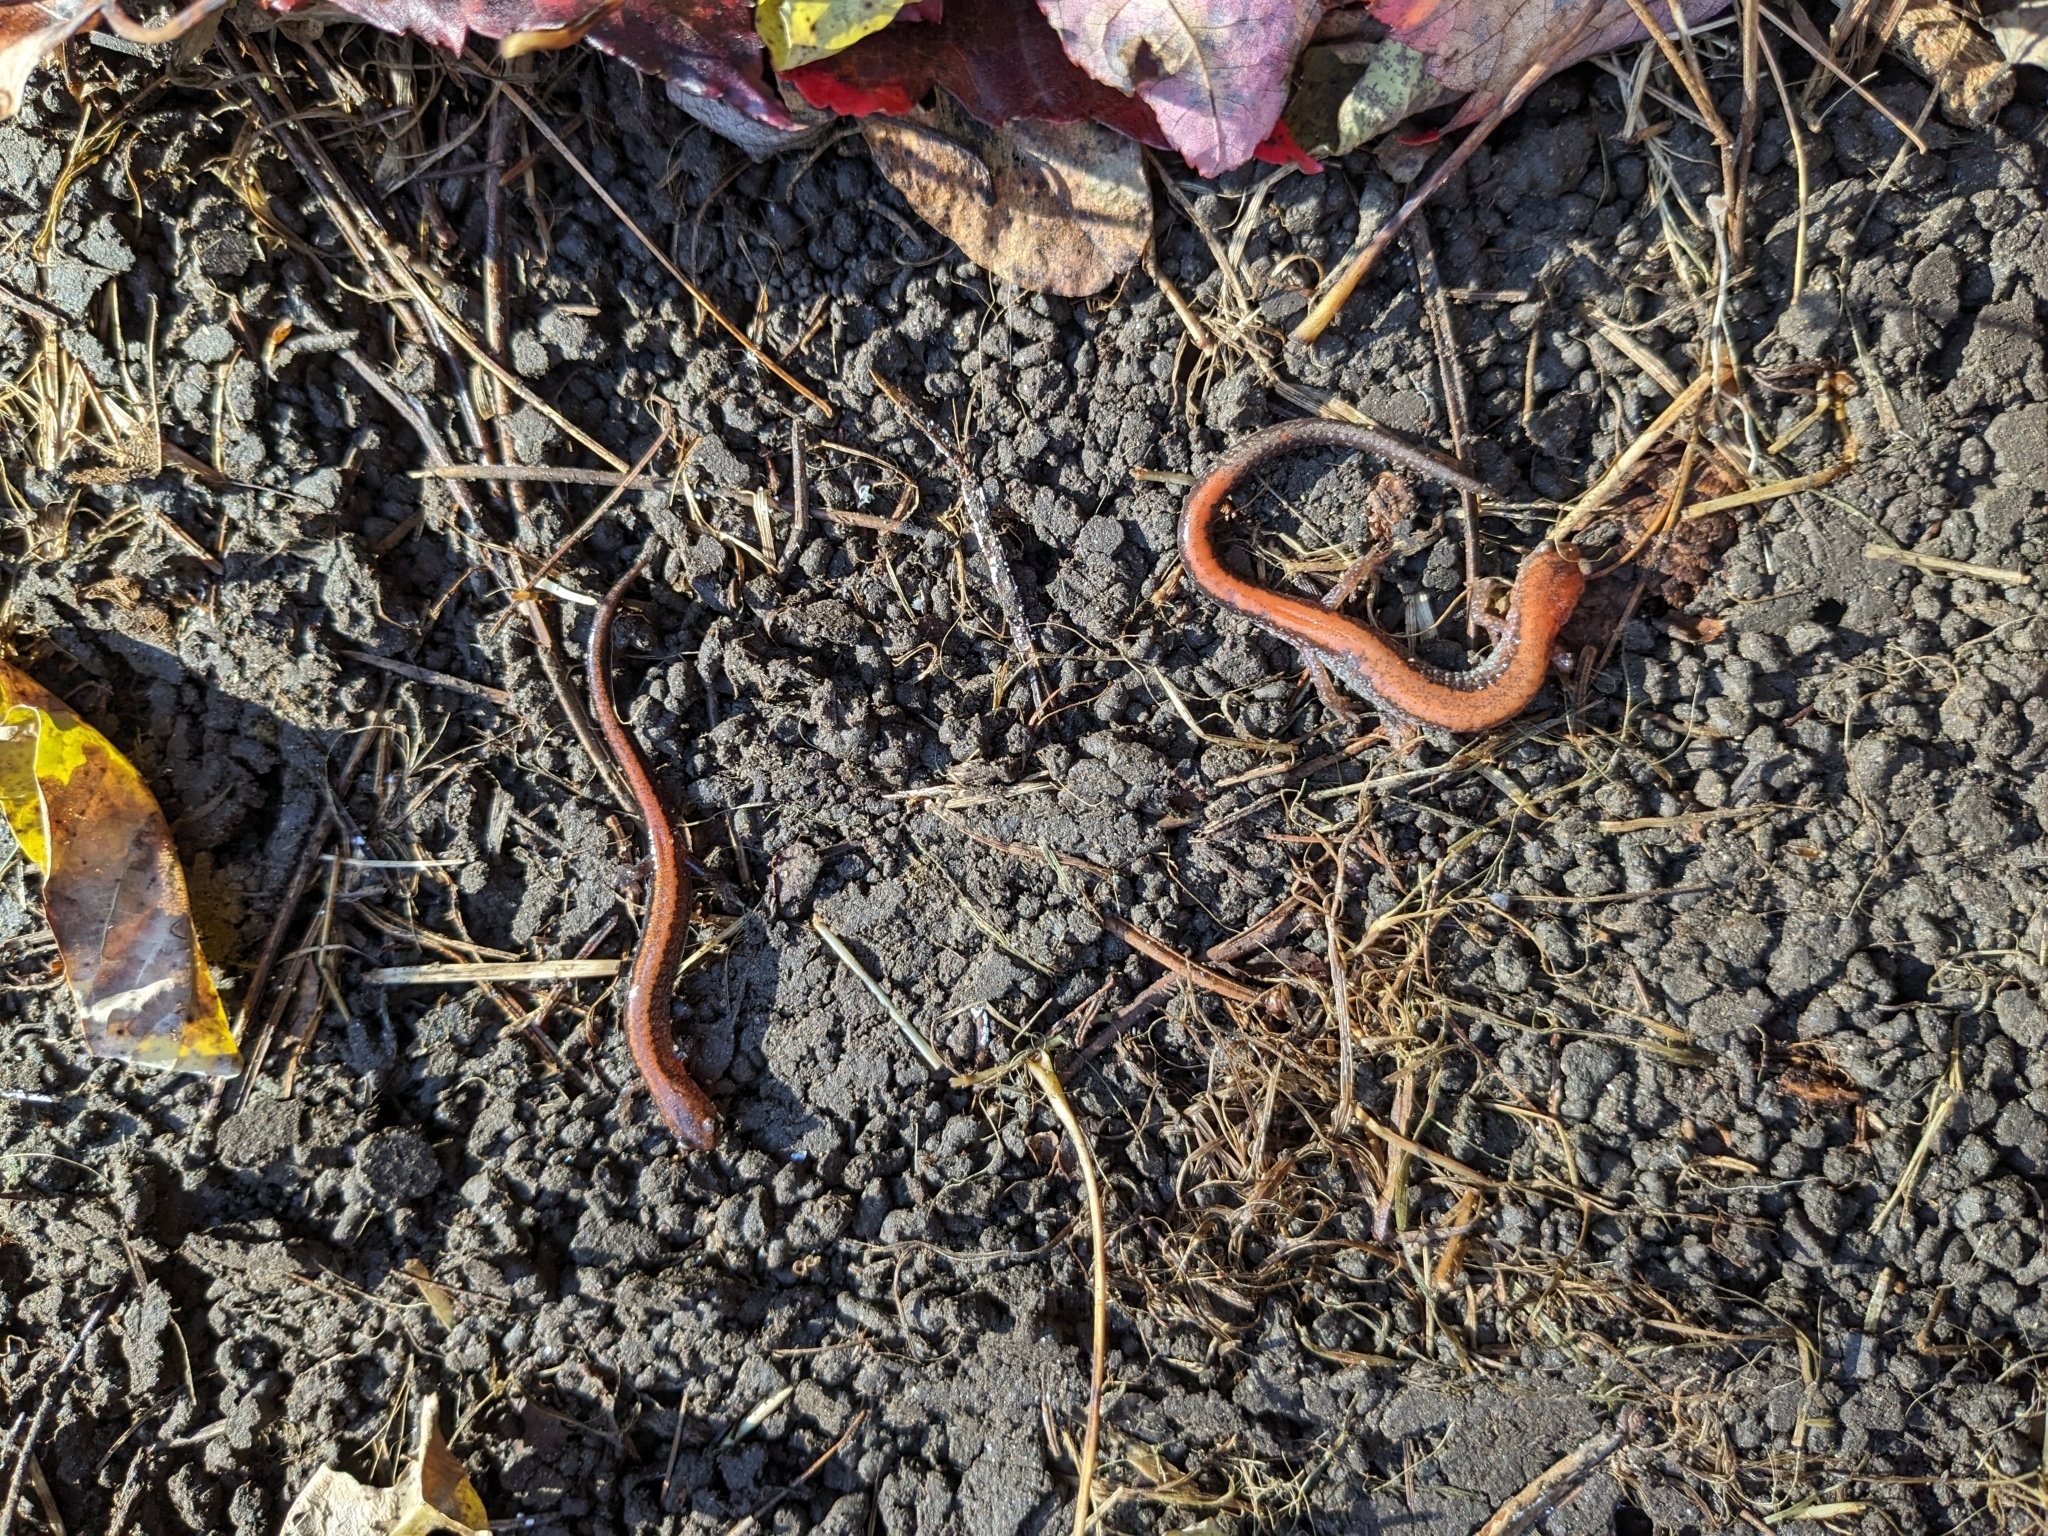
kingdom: Animalia
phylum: Chordata
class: Amphibia
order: Caudata
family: Plethodontidae
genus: Plethodon
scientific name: Plethodon cinereus
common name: Redback salamander
